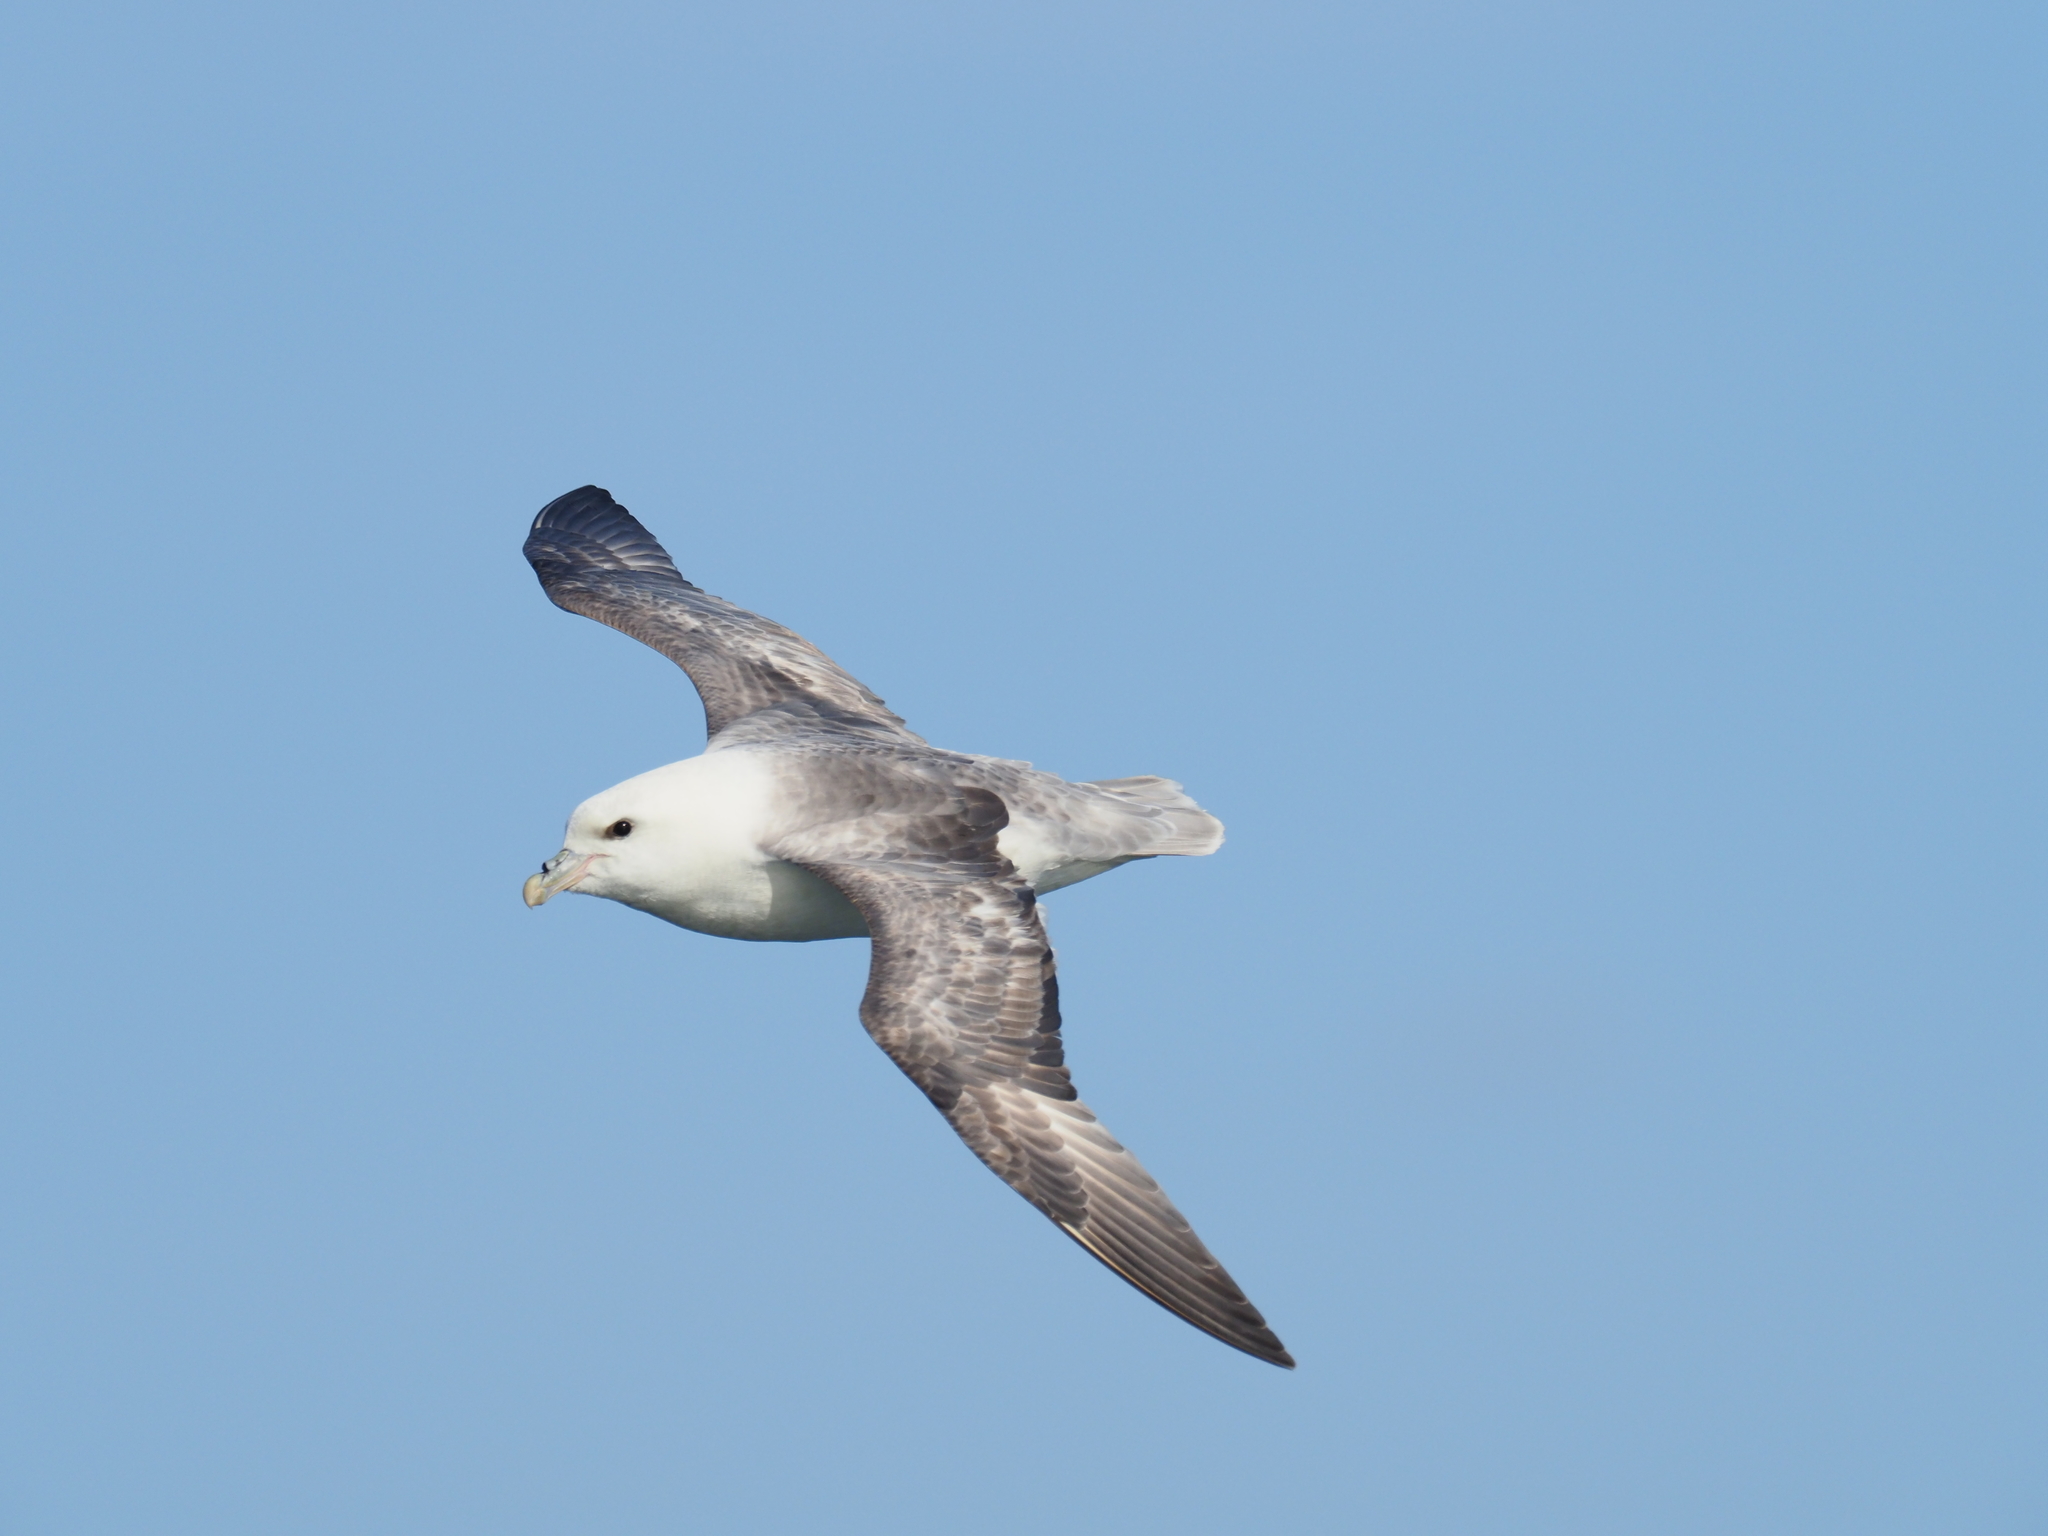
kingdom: Animalia
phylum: Chordata
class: Aves
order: Procellariiformes
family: Procellariidae
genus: Fulmarus
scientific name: Fulmarus glacialis
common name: Northern fulmar
